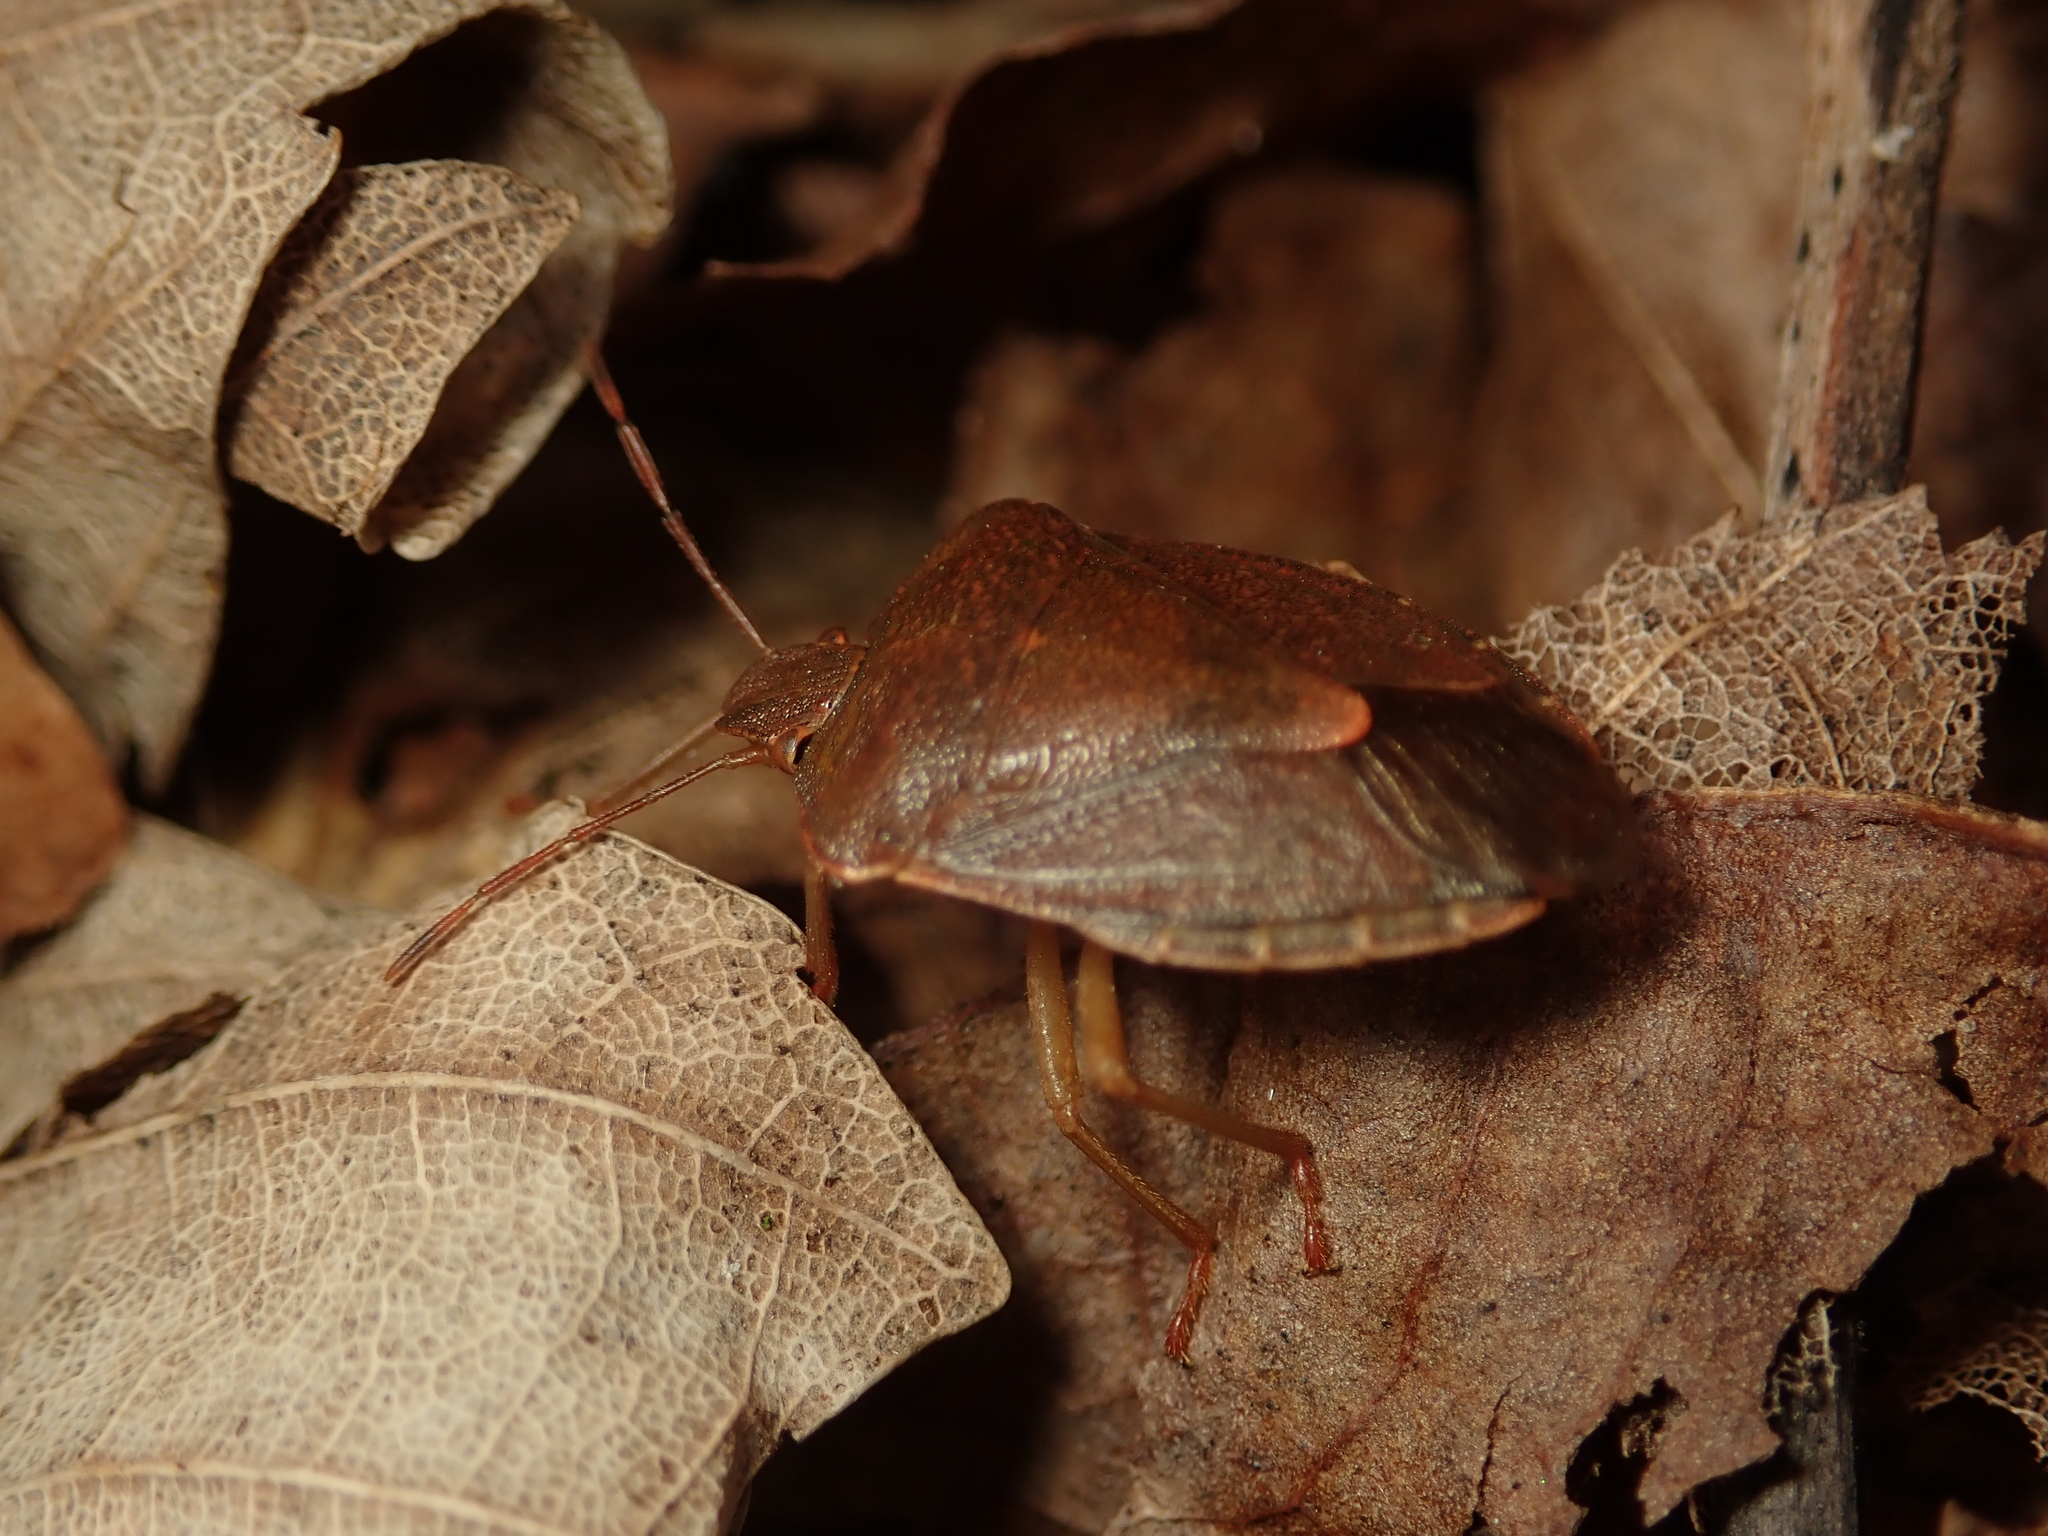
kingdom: Animalia
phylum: Arthropoda
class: Insecta
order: Hemiptera
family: Pentatomidae
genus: Palomena
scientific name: Palomena prasina
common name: Green shieldbug
